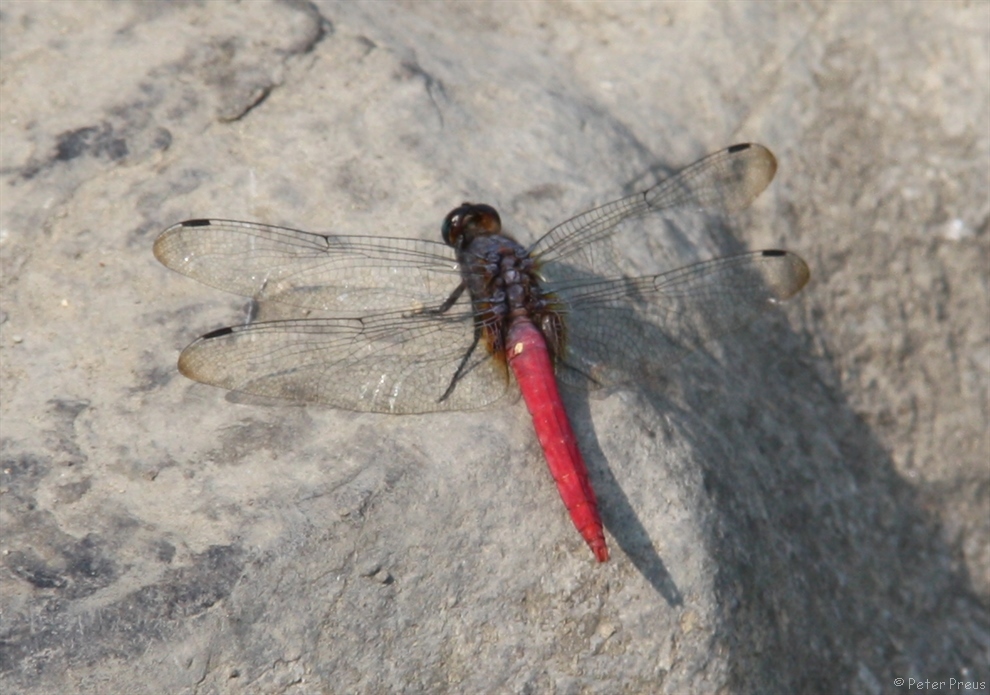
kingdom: Animalia
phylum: Arthropoda
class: Insecta
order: Odonata
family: Libellulidae
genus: Orthetrum
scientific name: Orthetrum pruinosum
